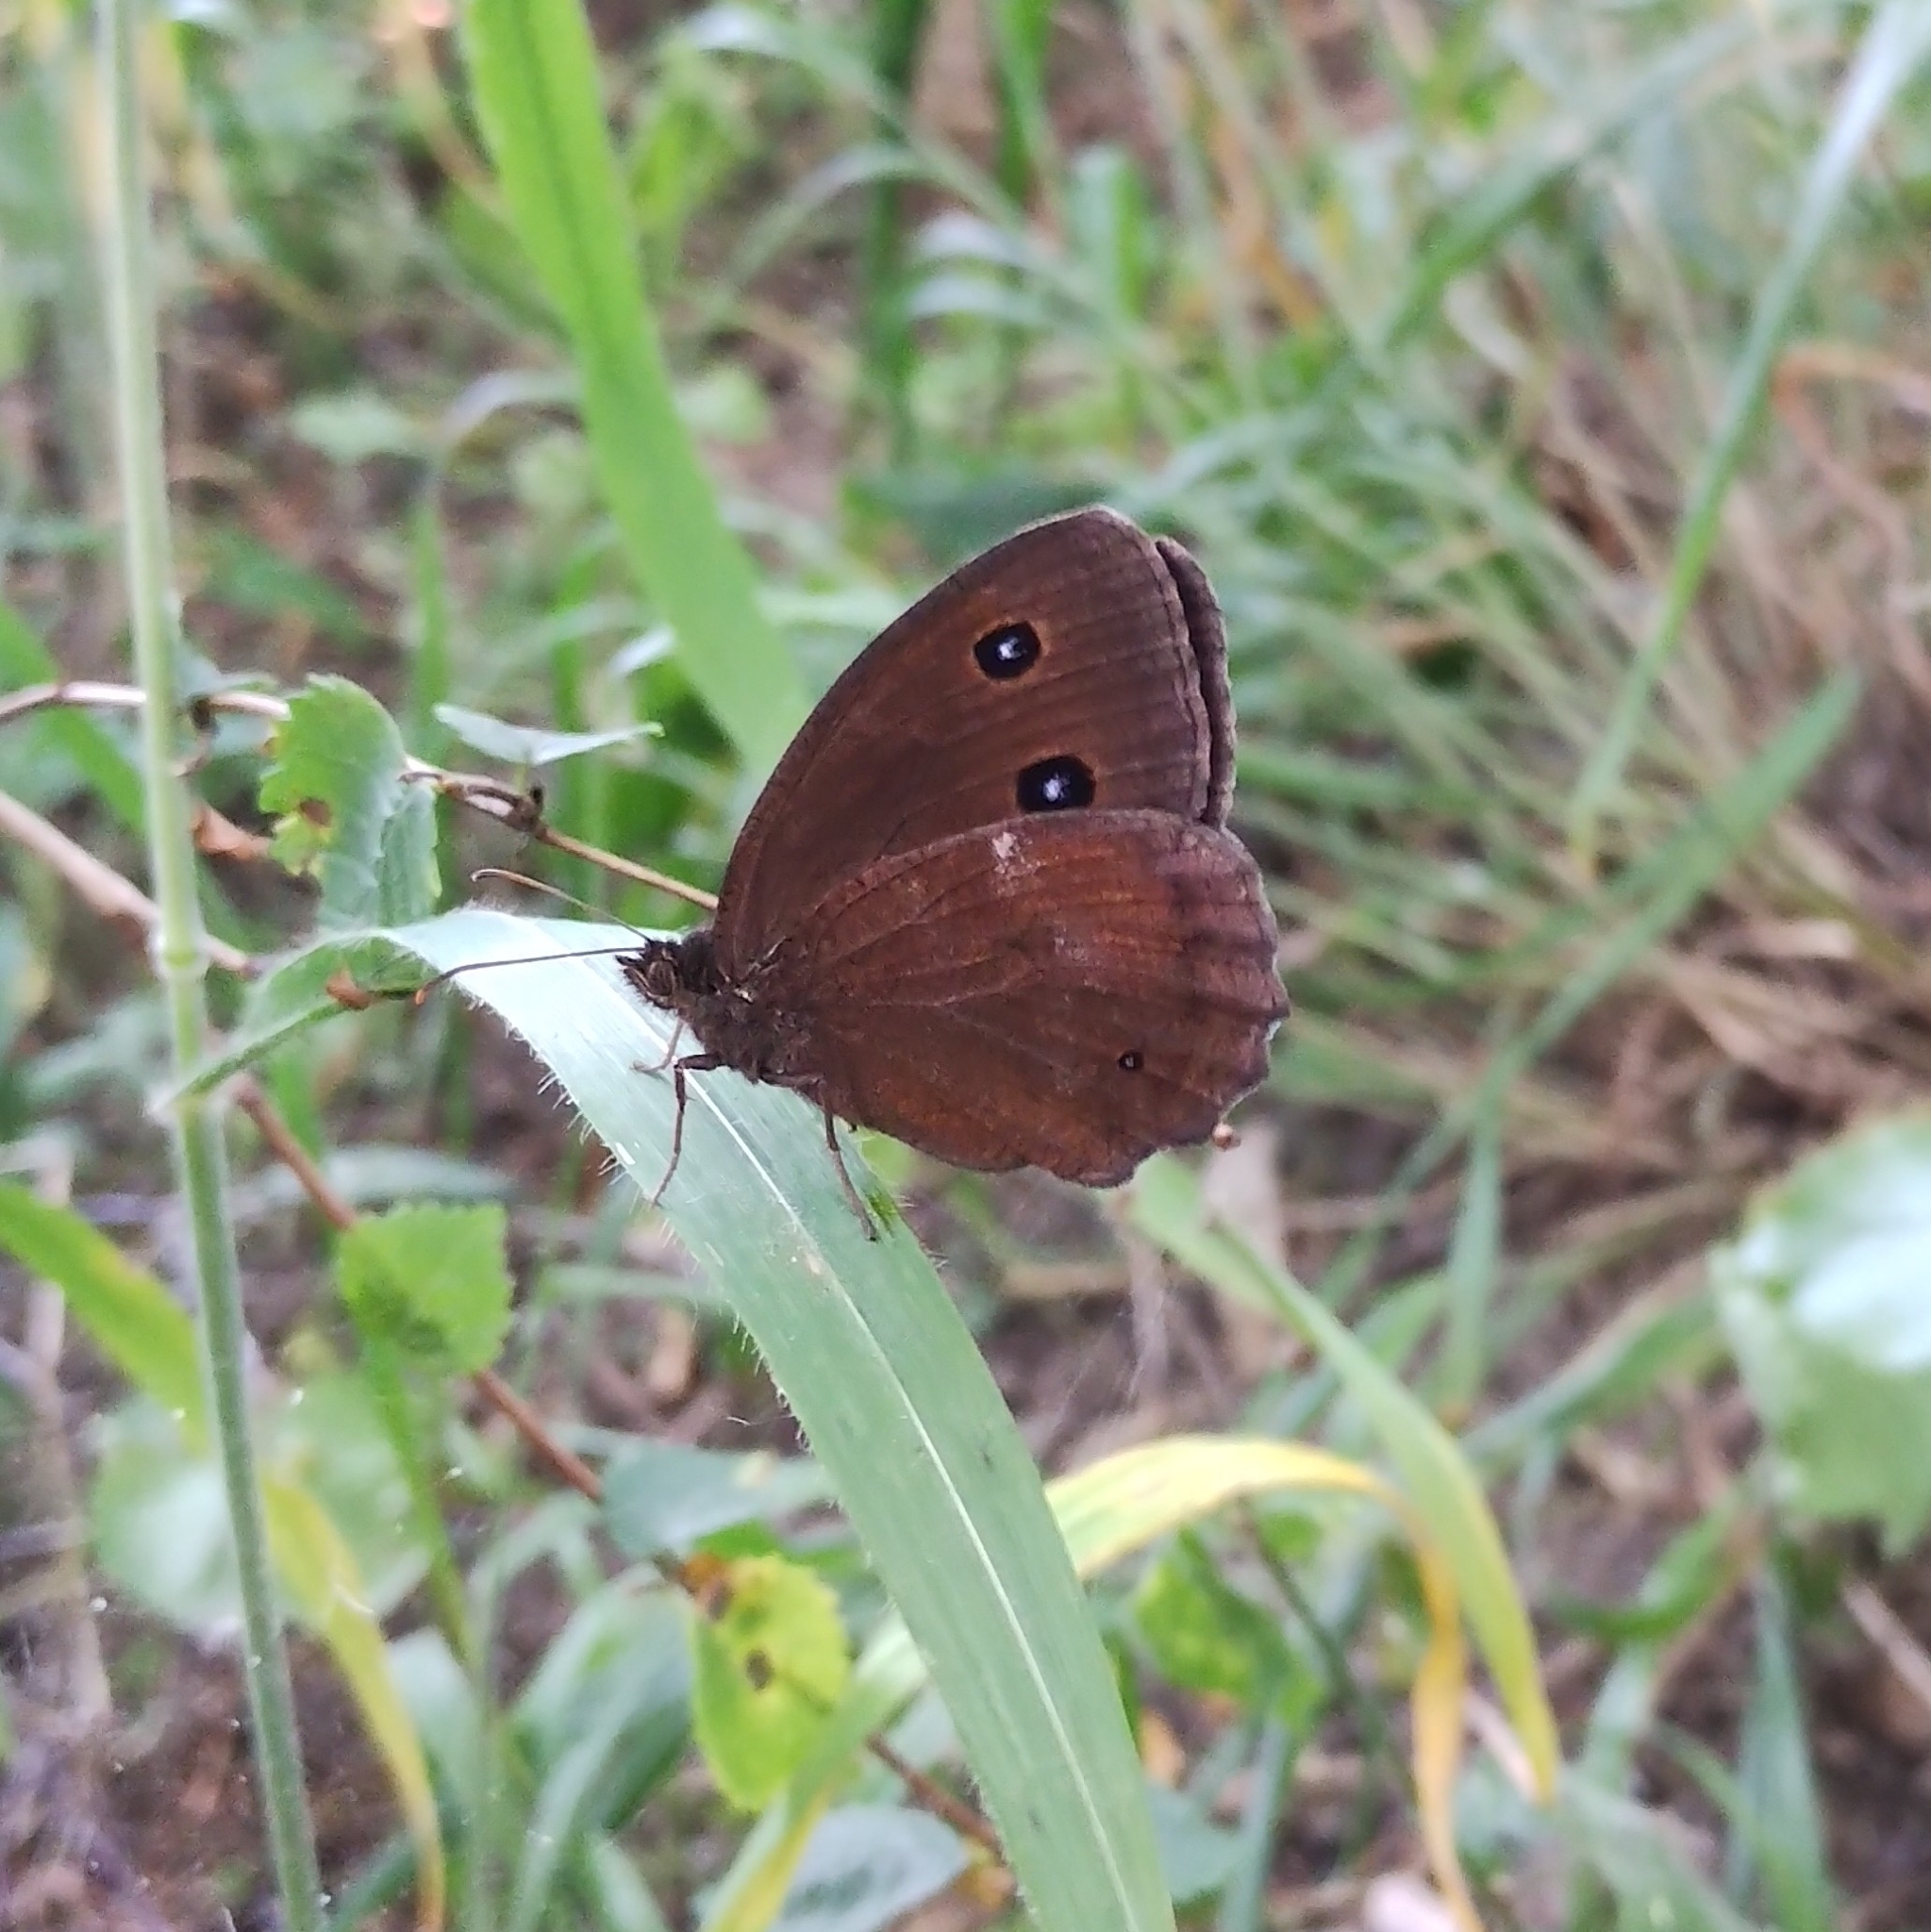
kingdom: Animalia
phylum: Arthropoda
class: Insecta
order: Lepidoptera
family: Nymphalidae
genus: Minois
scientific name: Minois dryas
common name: Dryad
